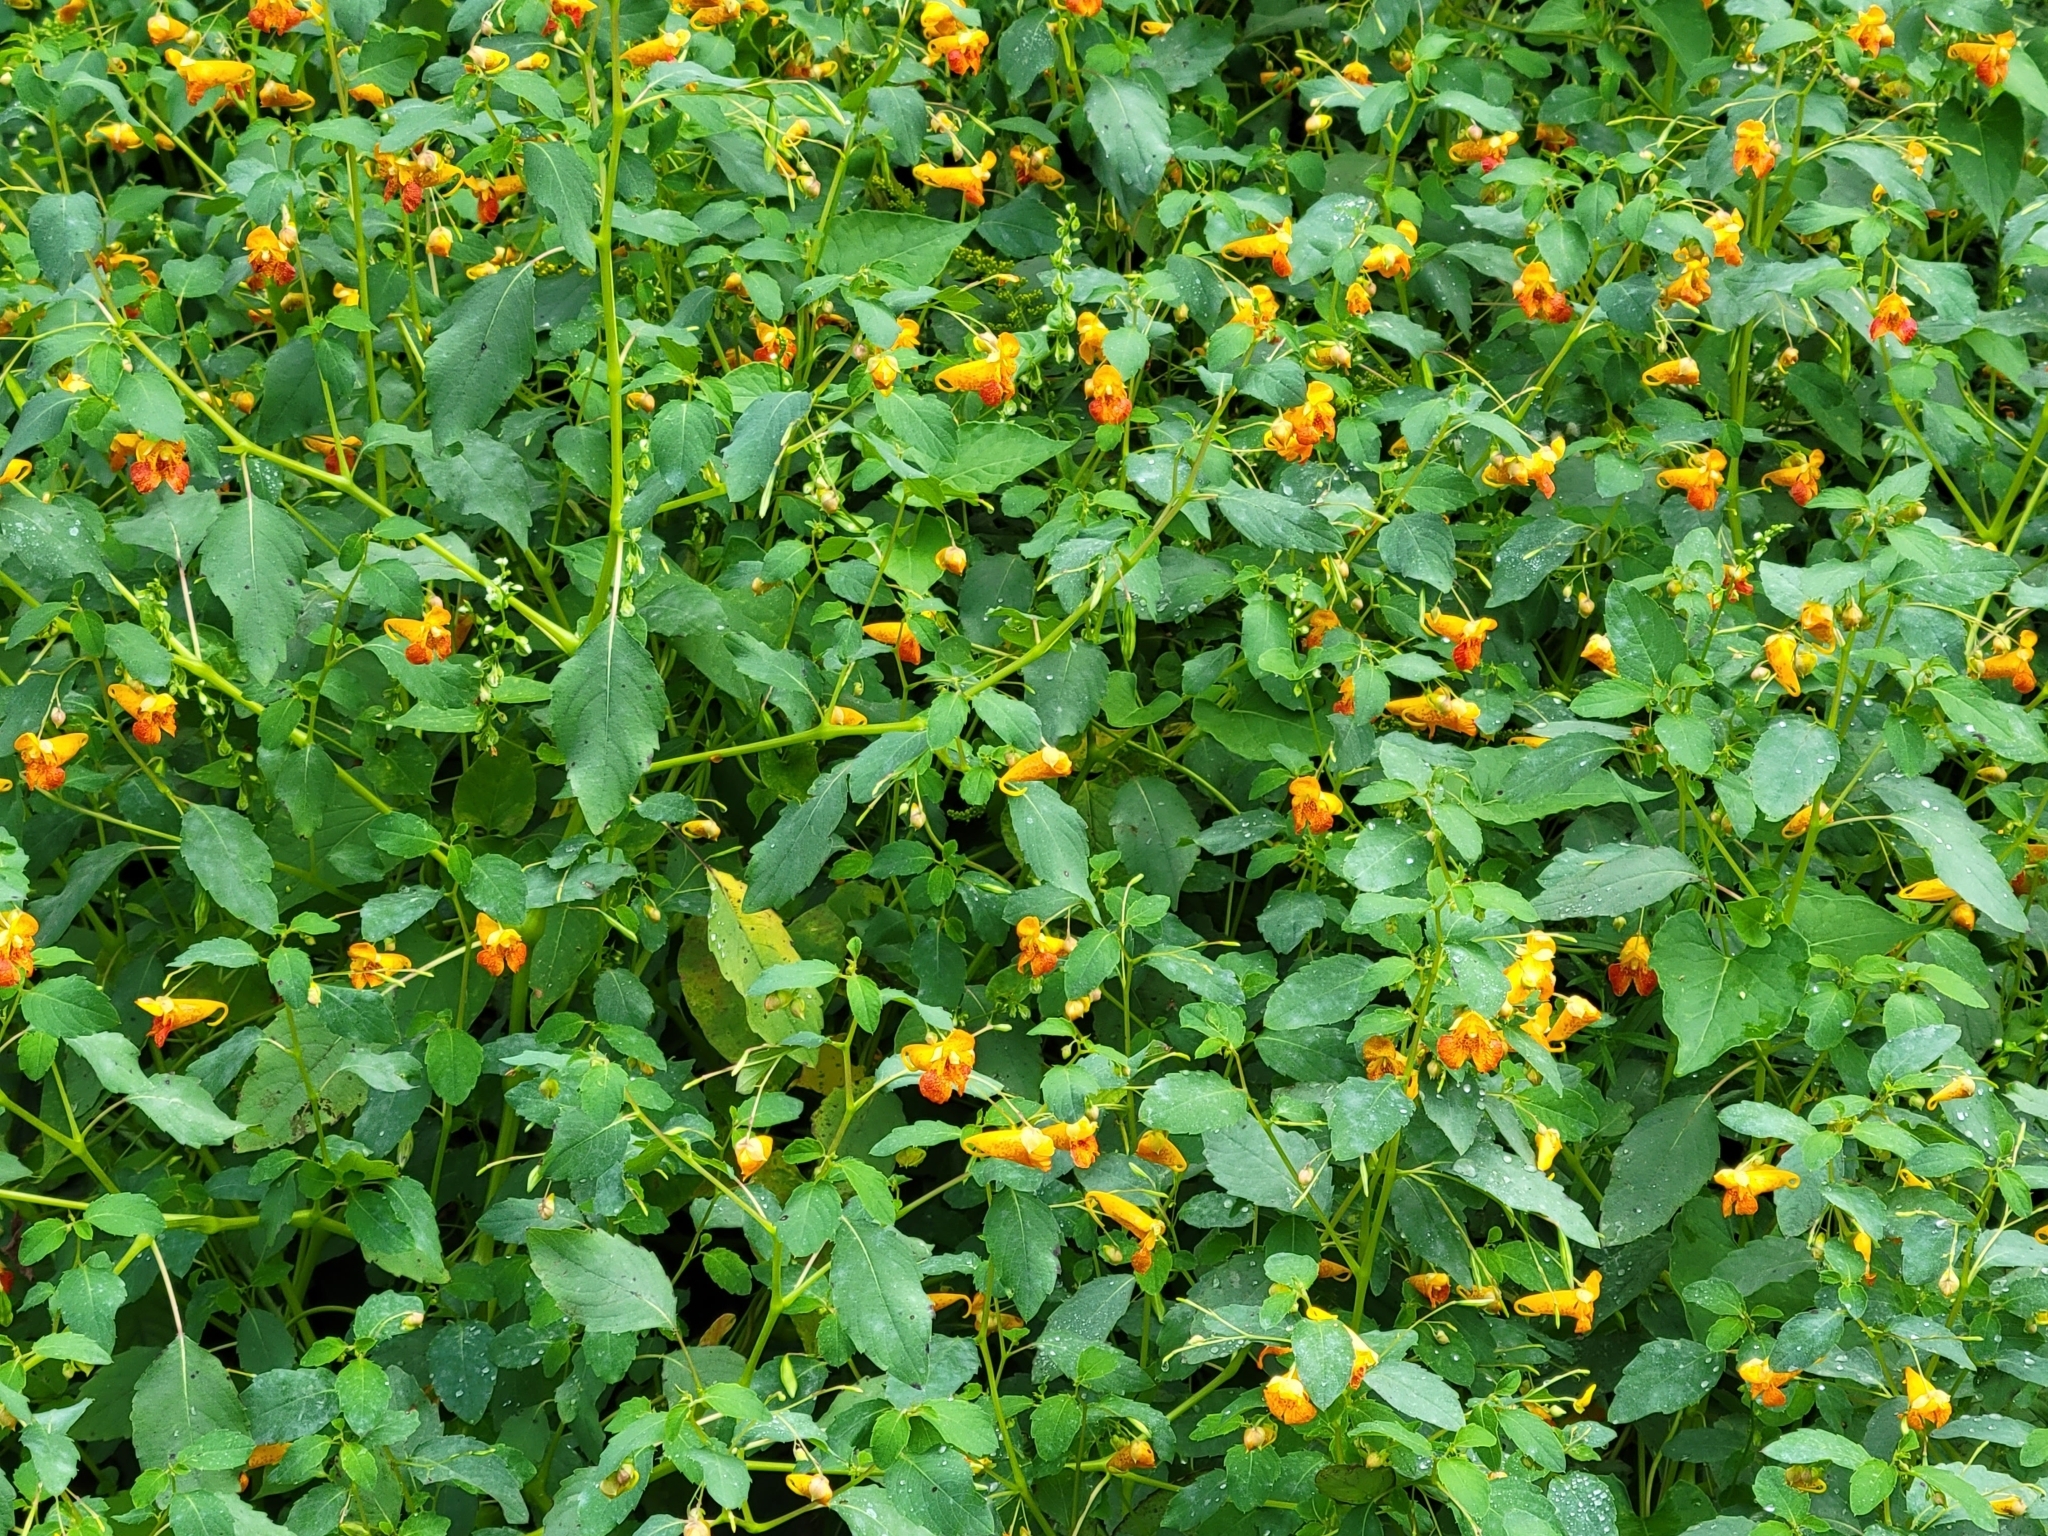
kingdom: Plantae
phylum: Tracheophyta
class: Magnoliopsida
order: Ericales
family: Balsaminaceae
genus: Impatiens
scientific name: Impatiens capensis
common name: Orange balsam
